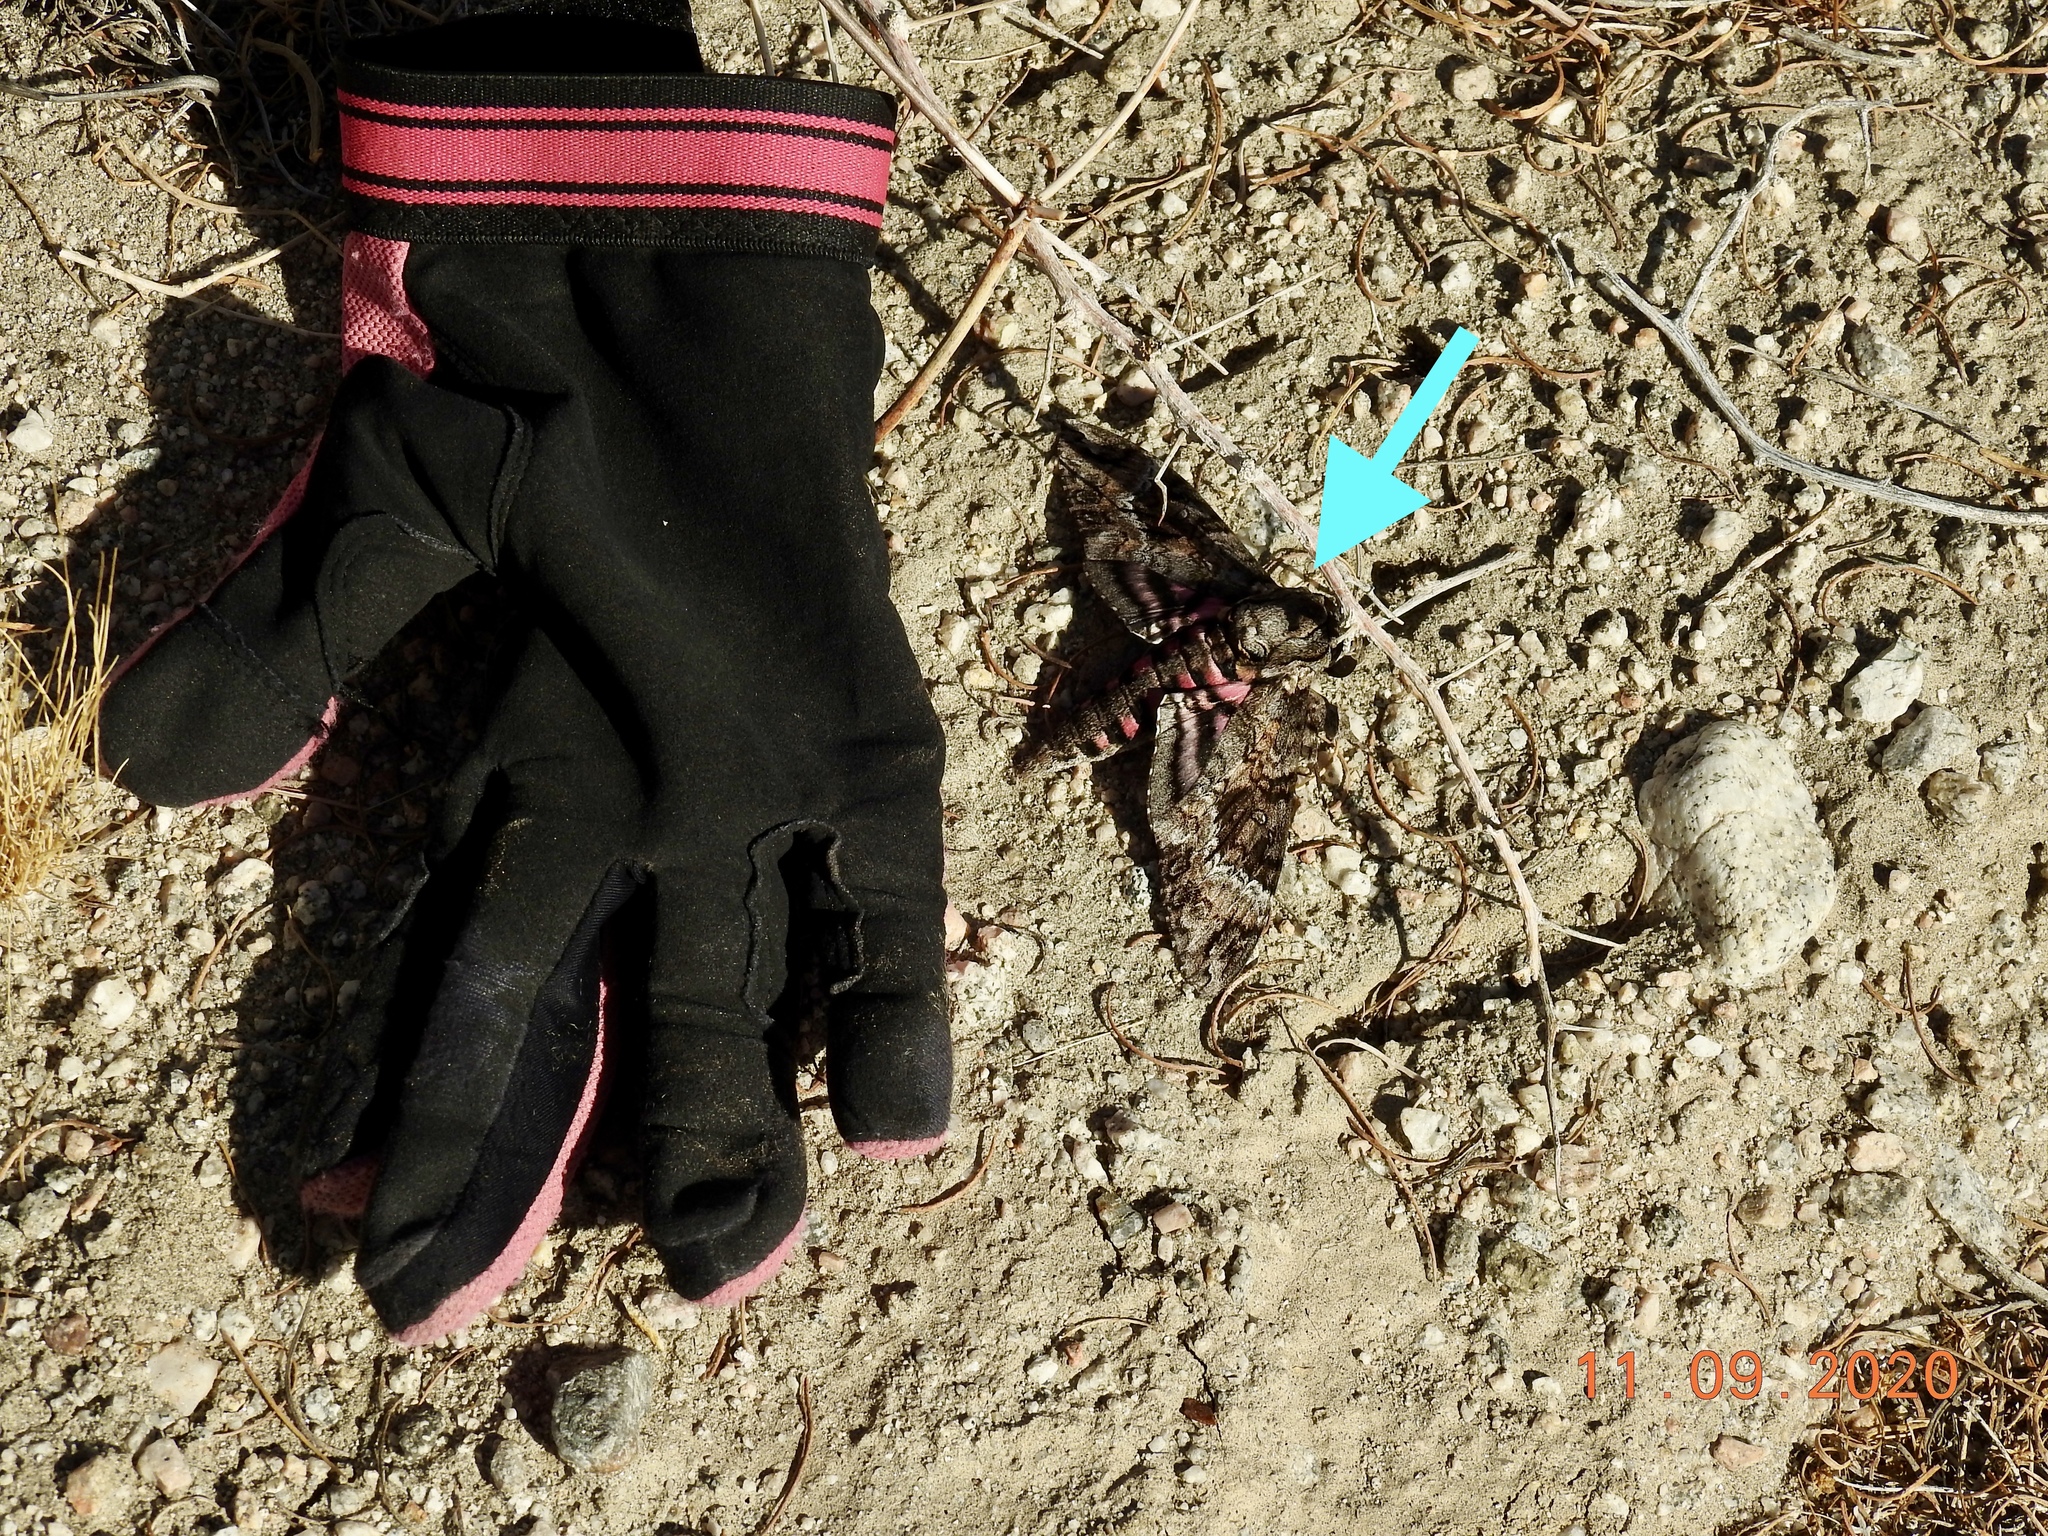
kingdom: Animalia
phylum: Arthropoda
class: Insecta
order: Lepidoptera
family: Sphingidae
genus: Agrius
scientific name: Agrius cingulata
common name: Pink-spotted hawkmoth
